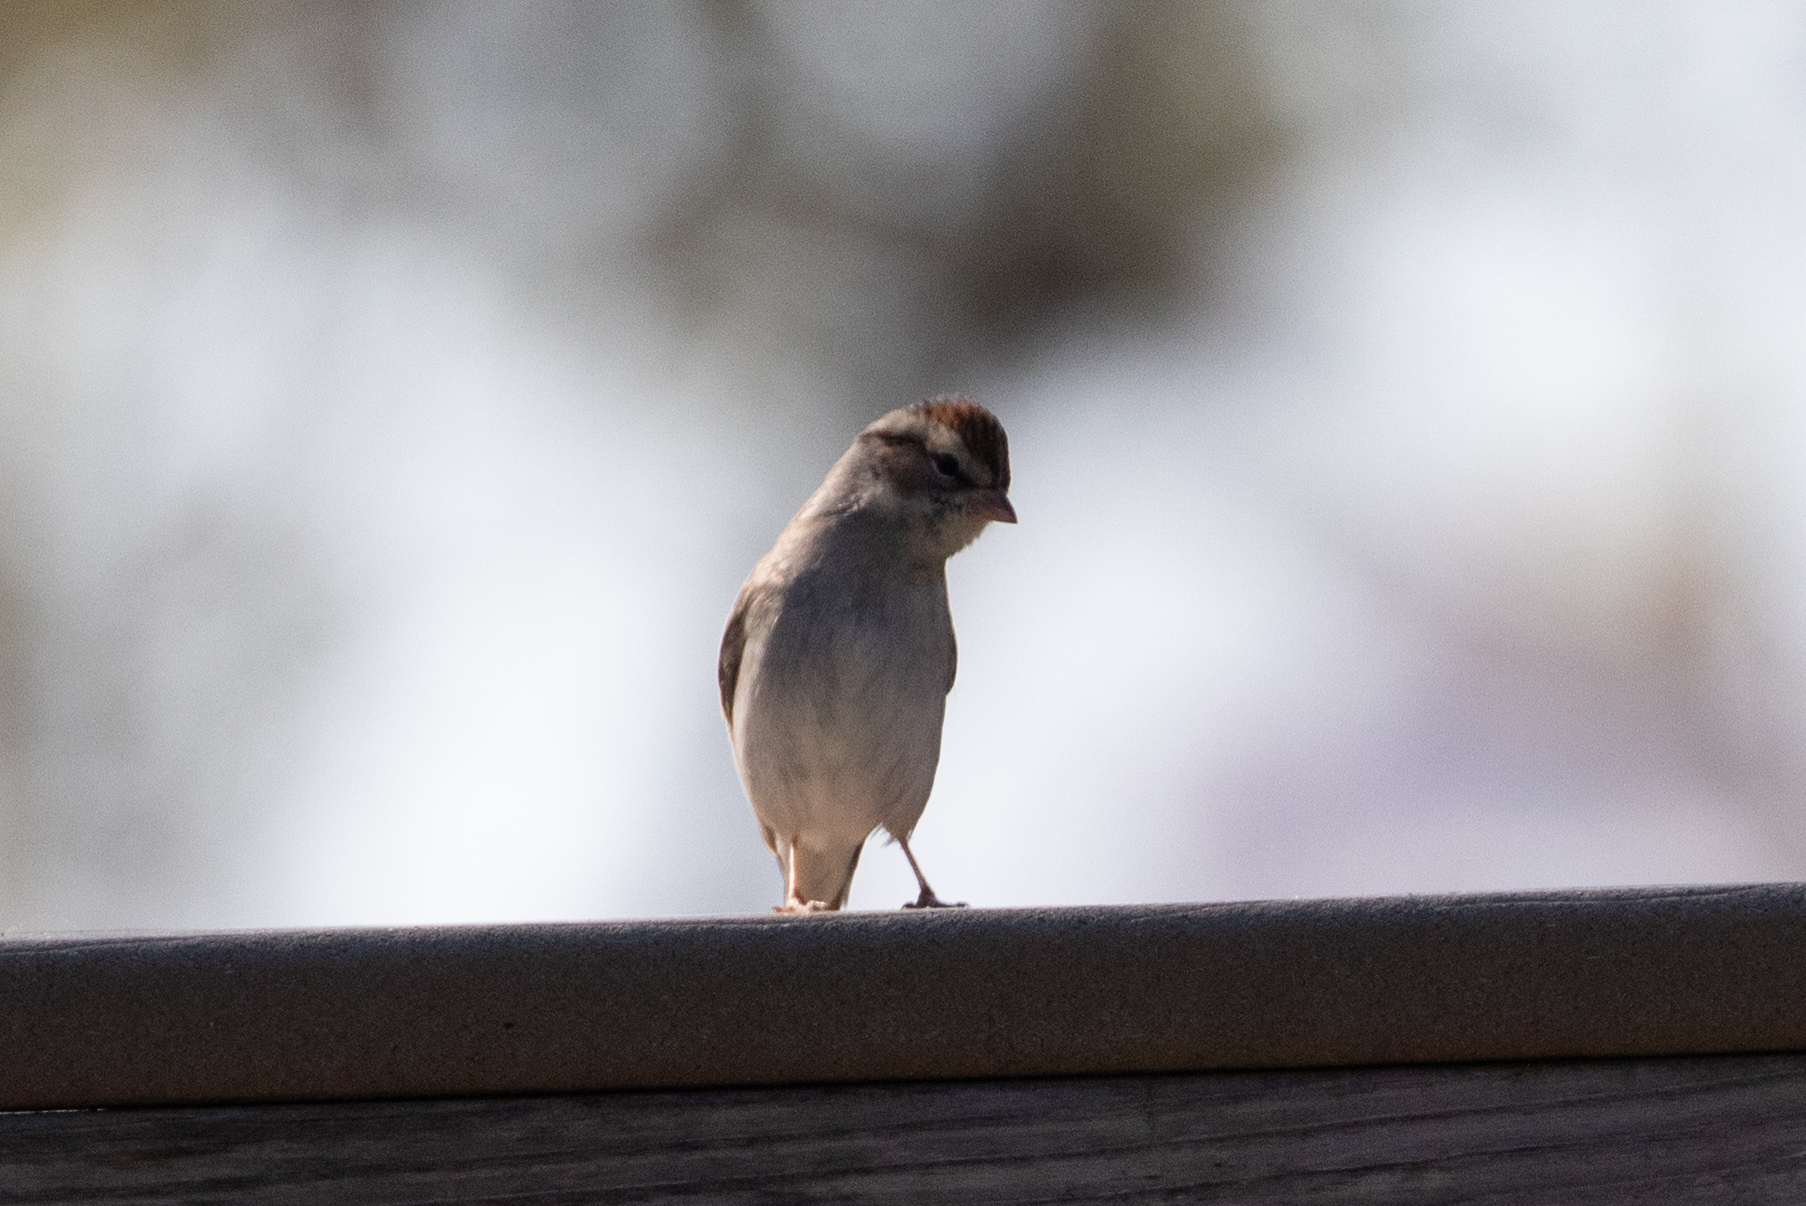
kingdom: Animalia
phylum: Chordata
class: Aves
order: Passeriformes
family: Passerellidae
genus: Spizella
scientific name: Spizella passerina
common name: Chipping sparrow
